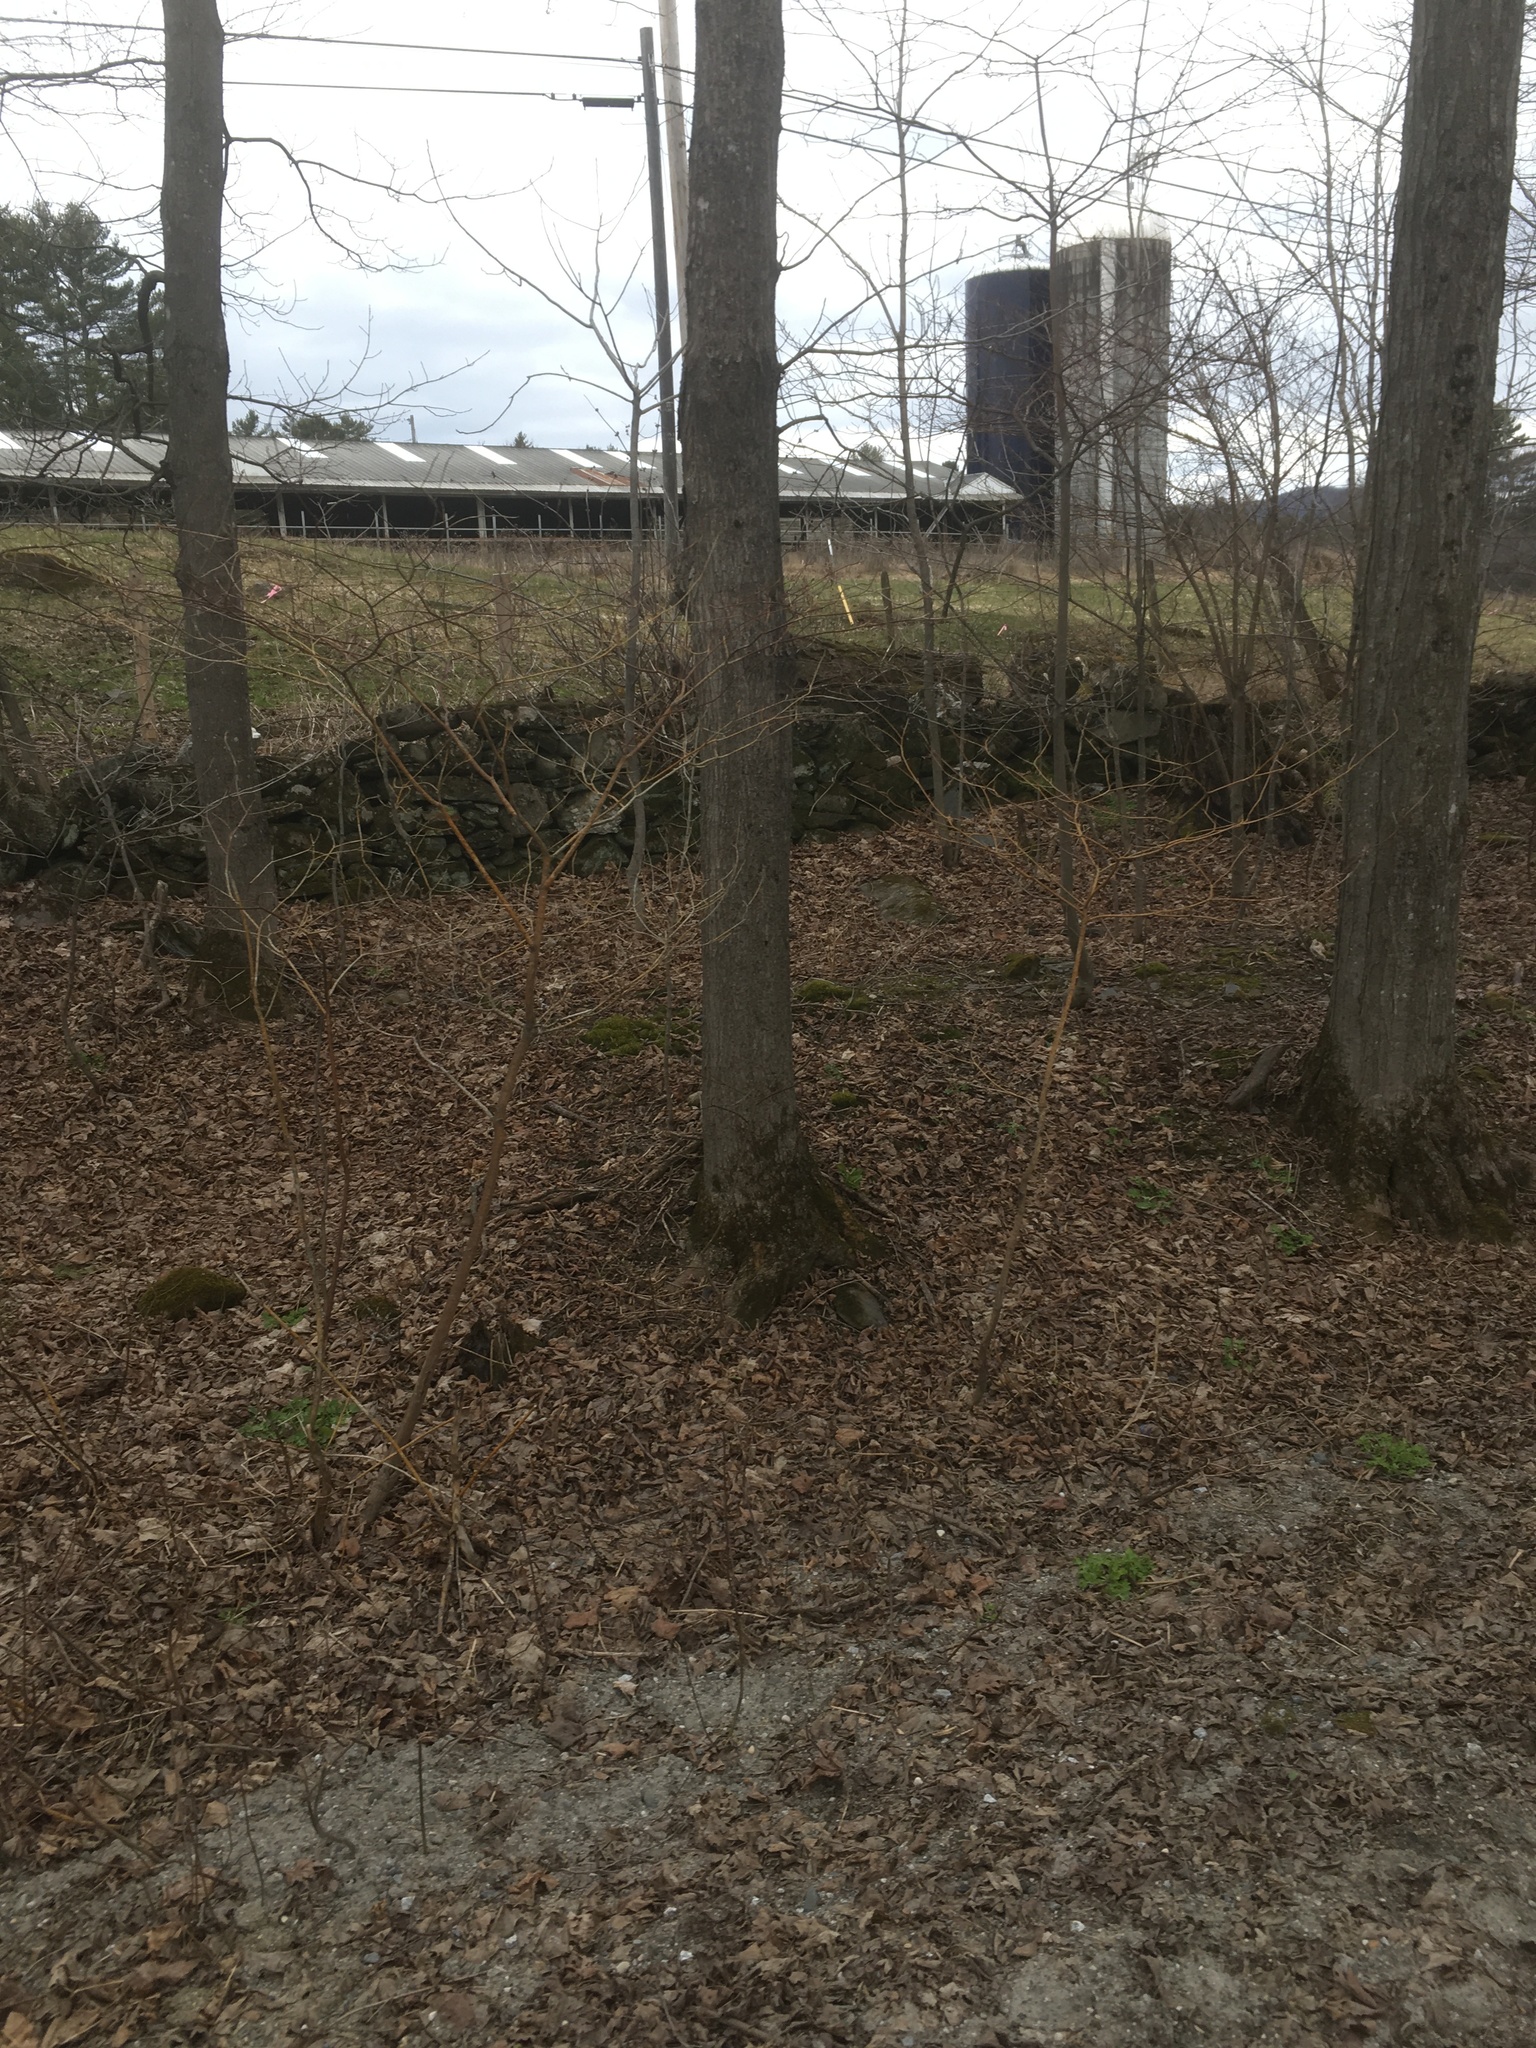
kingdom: Plantae
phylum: Tracheophyta
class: Magnoliopsida
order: Cornales
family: Cornaceae
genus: Cornus
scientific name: Cornus alternifolia
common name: Pagoda dogwood
